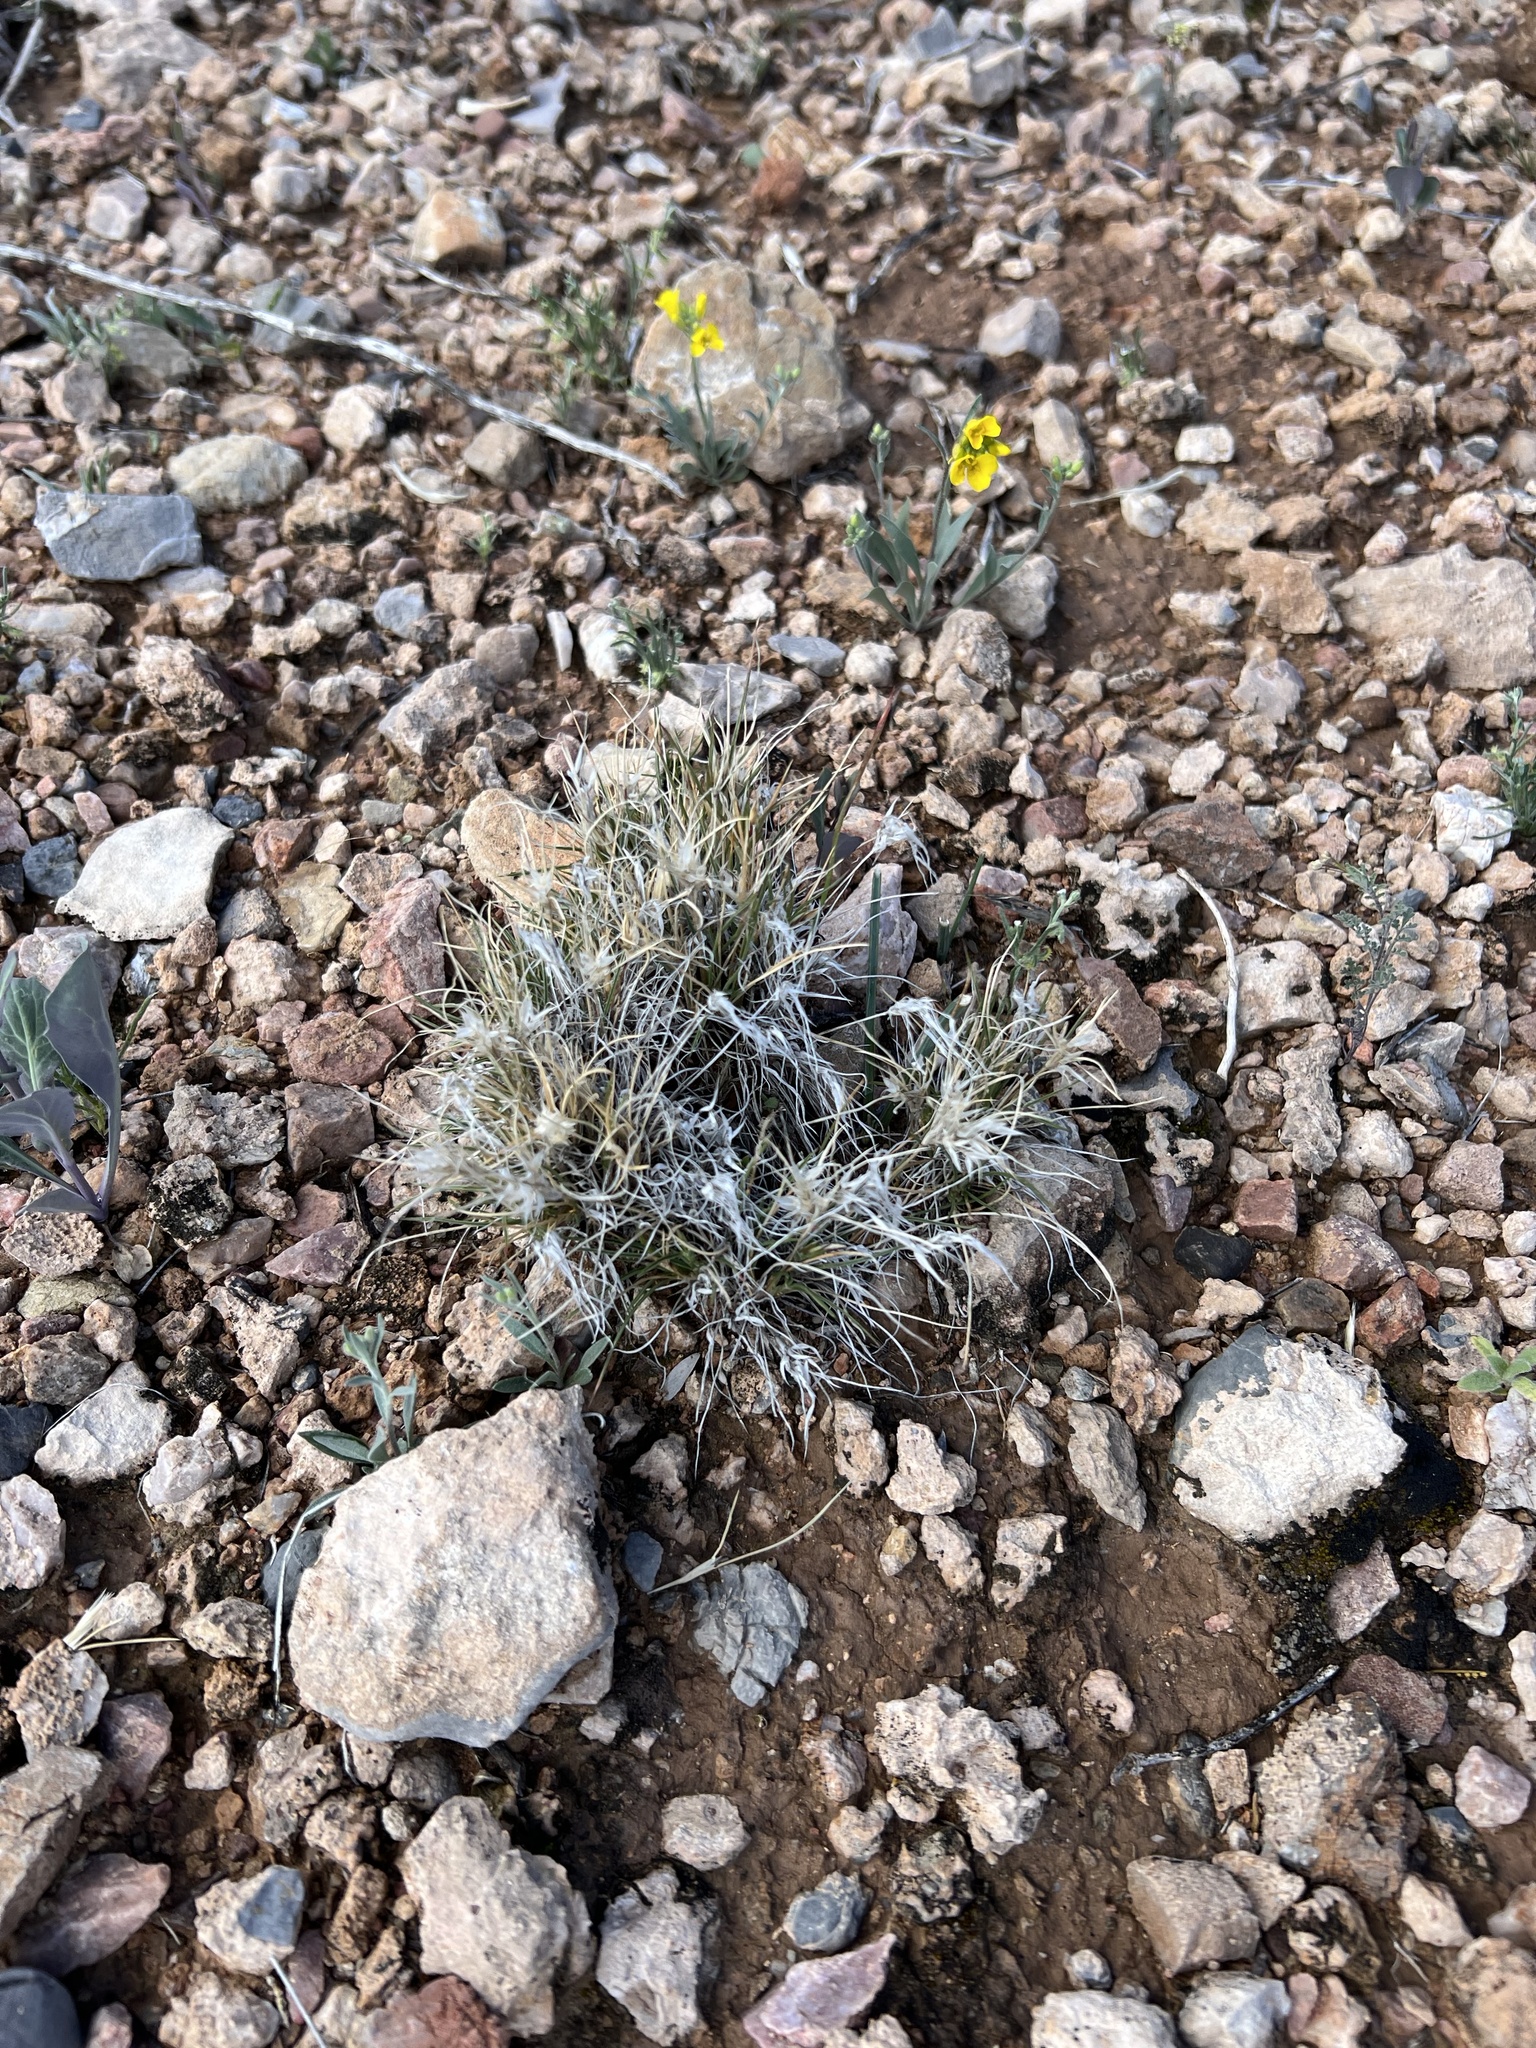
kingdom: Plantae
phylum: Tracheophyta
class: Liliopsida
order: Poales
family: Poaceae
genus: Dasyochloa
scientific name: Dasyochloa pulchella
